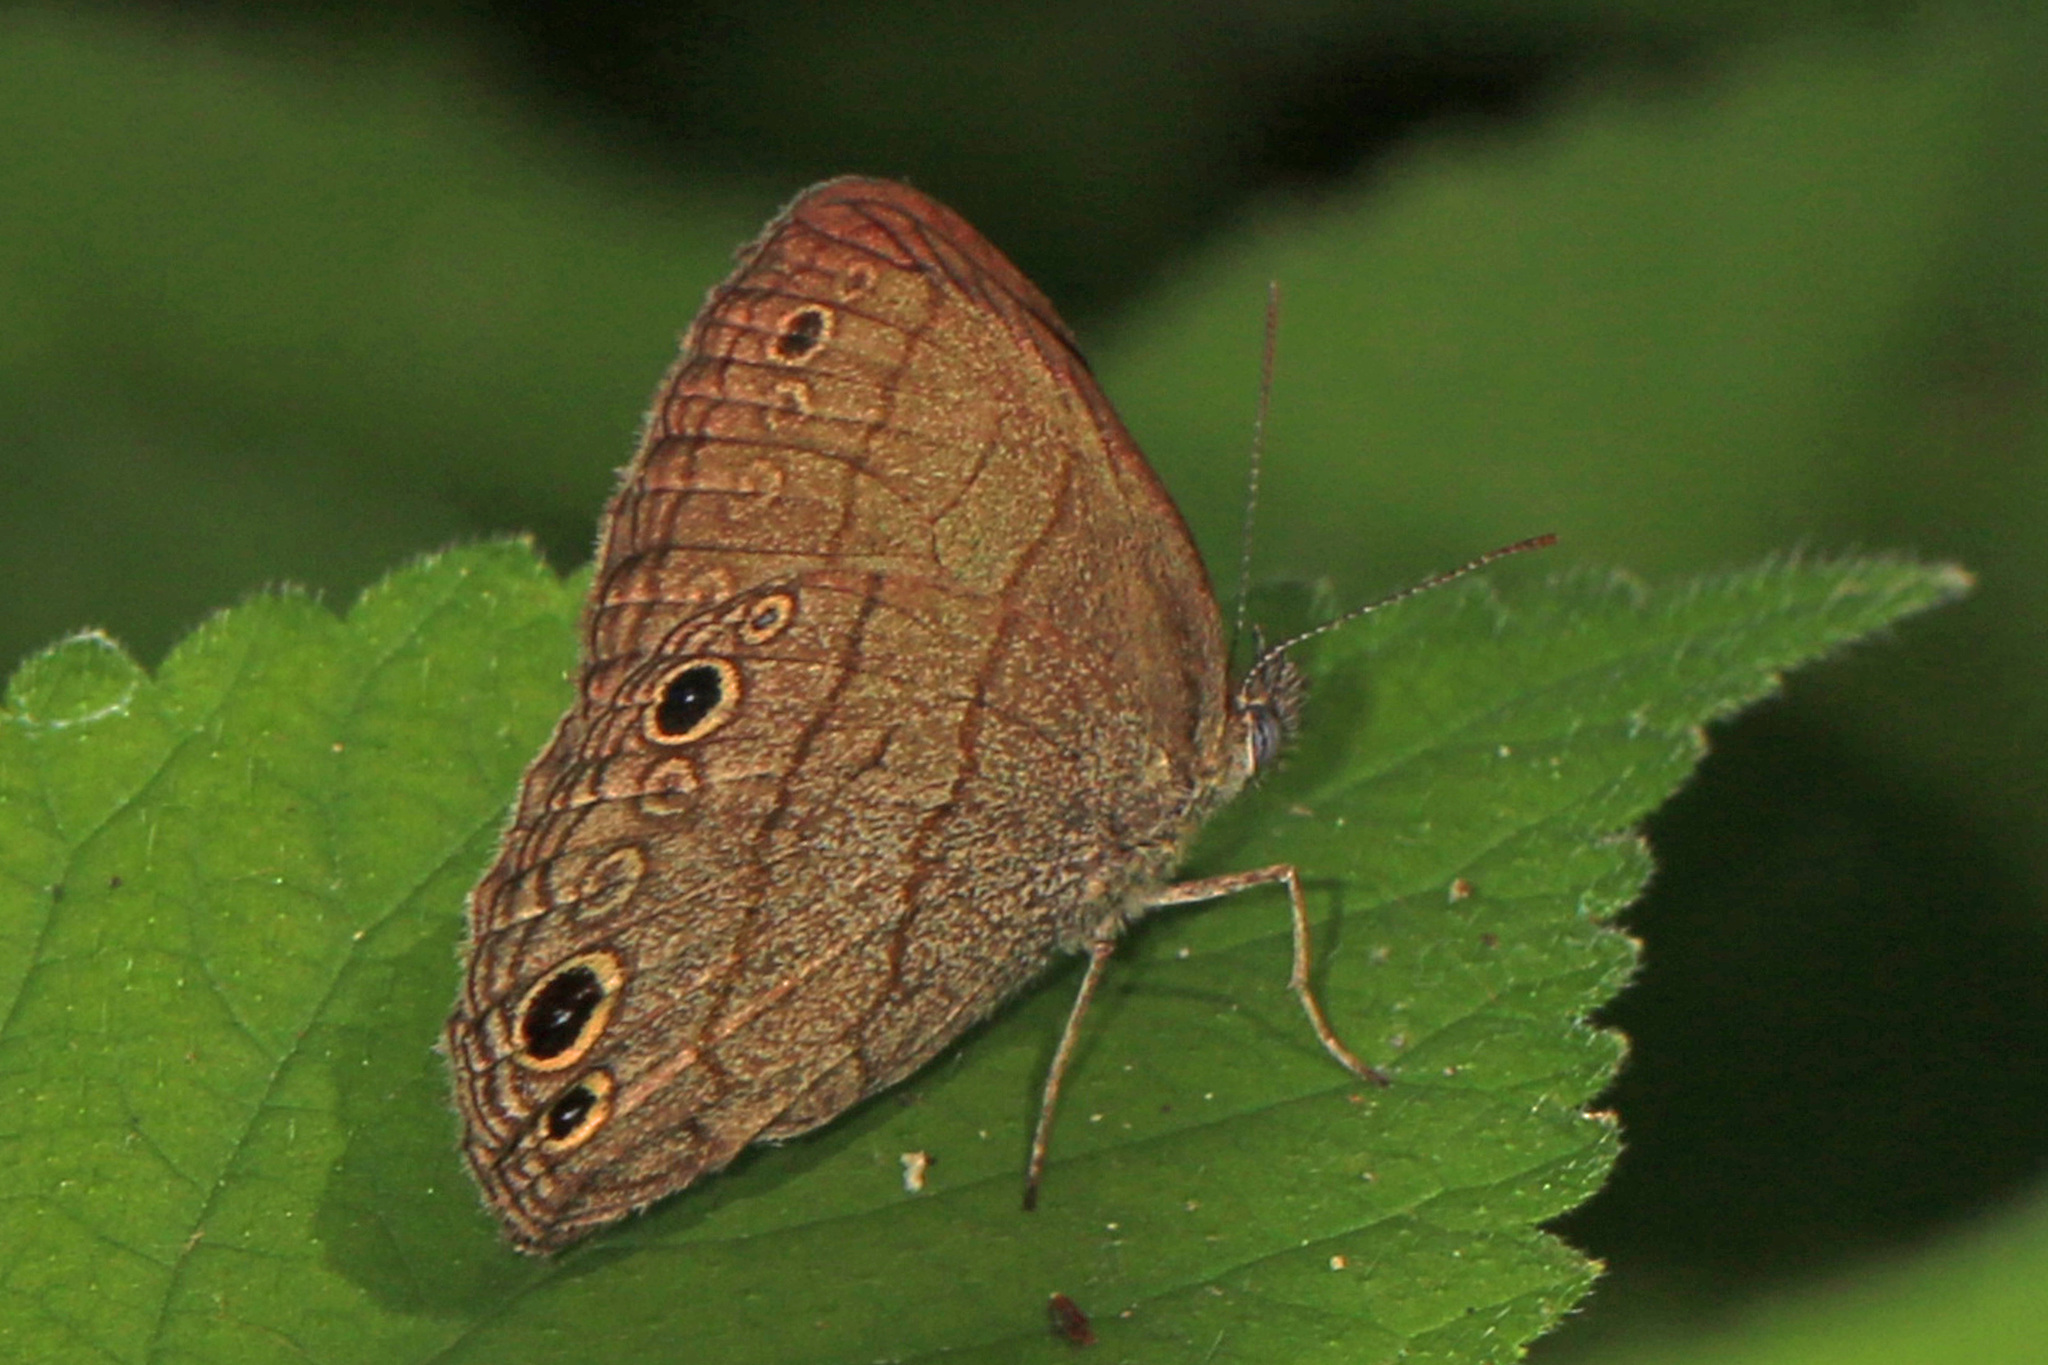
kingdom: Animalia
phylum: Arthropoda
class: Insecta
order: Lepidoptera
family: Nymphalidae
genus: Hermeuptychia
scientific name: Hermeuptychia hermes
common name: Hermes satyr
